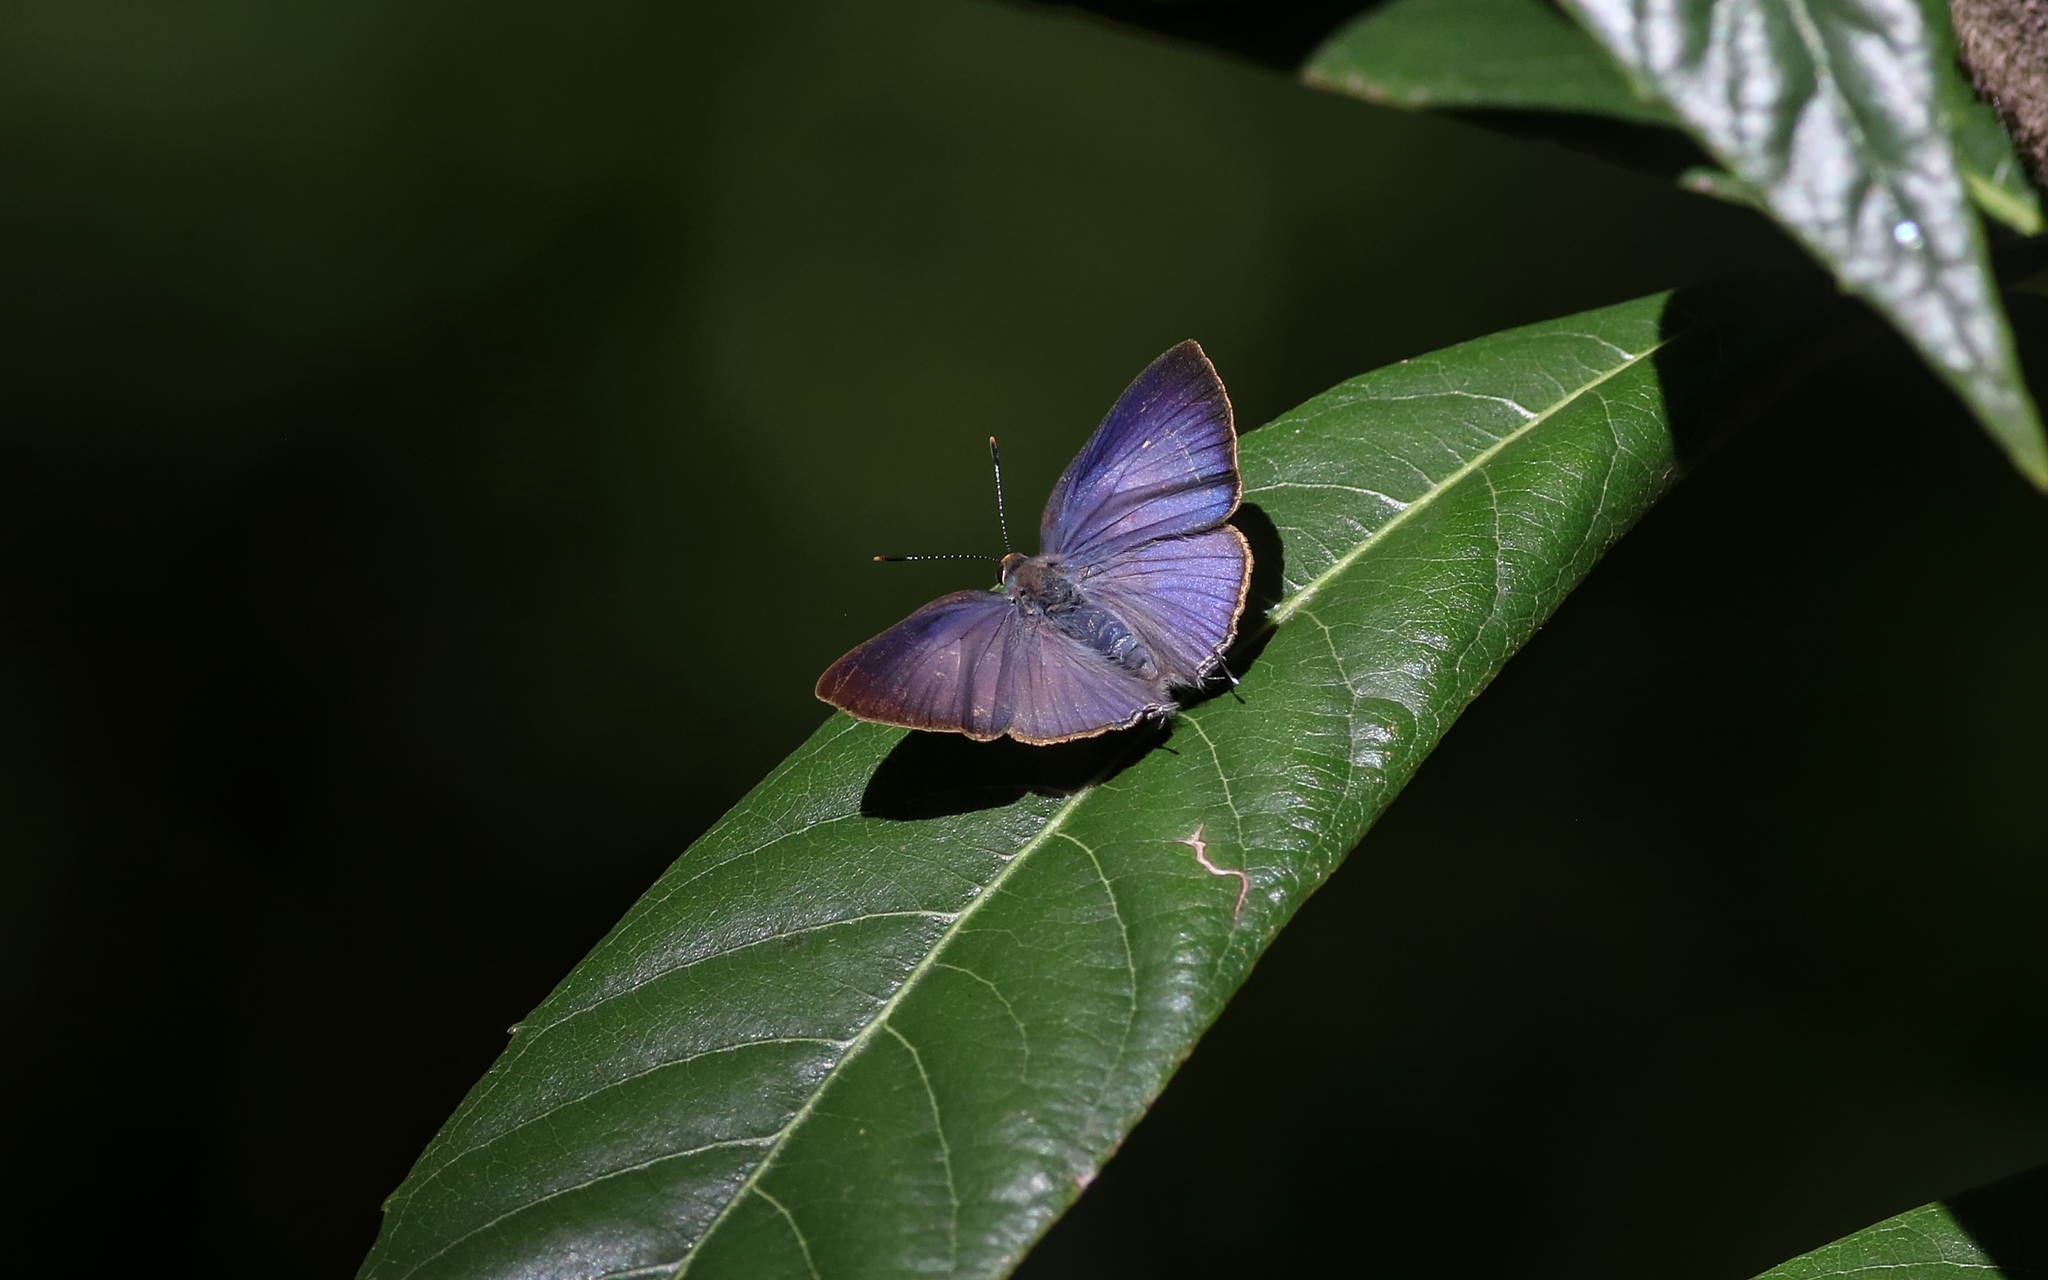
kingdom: Animalia
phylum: Arthropoda
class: Insecta
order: Lepidoptera
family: Lycaenidae
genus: Rapala
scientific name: Rapala varuna
